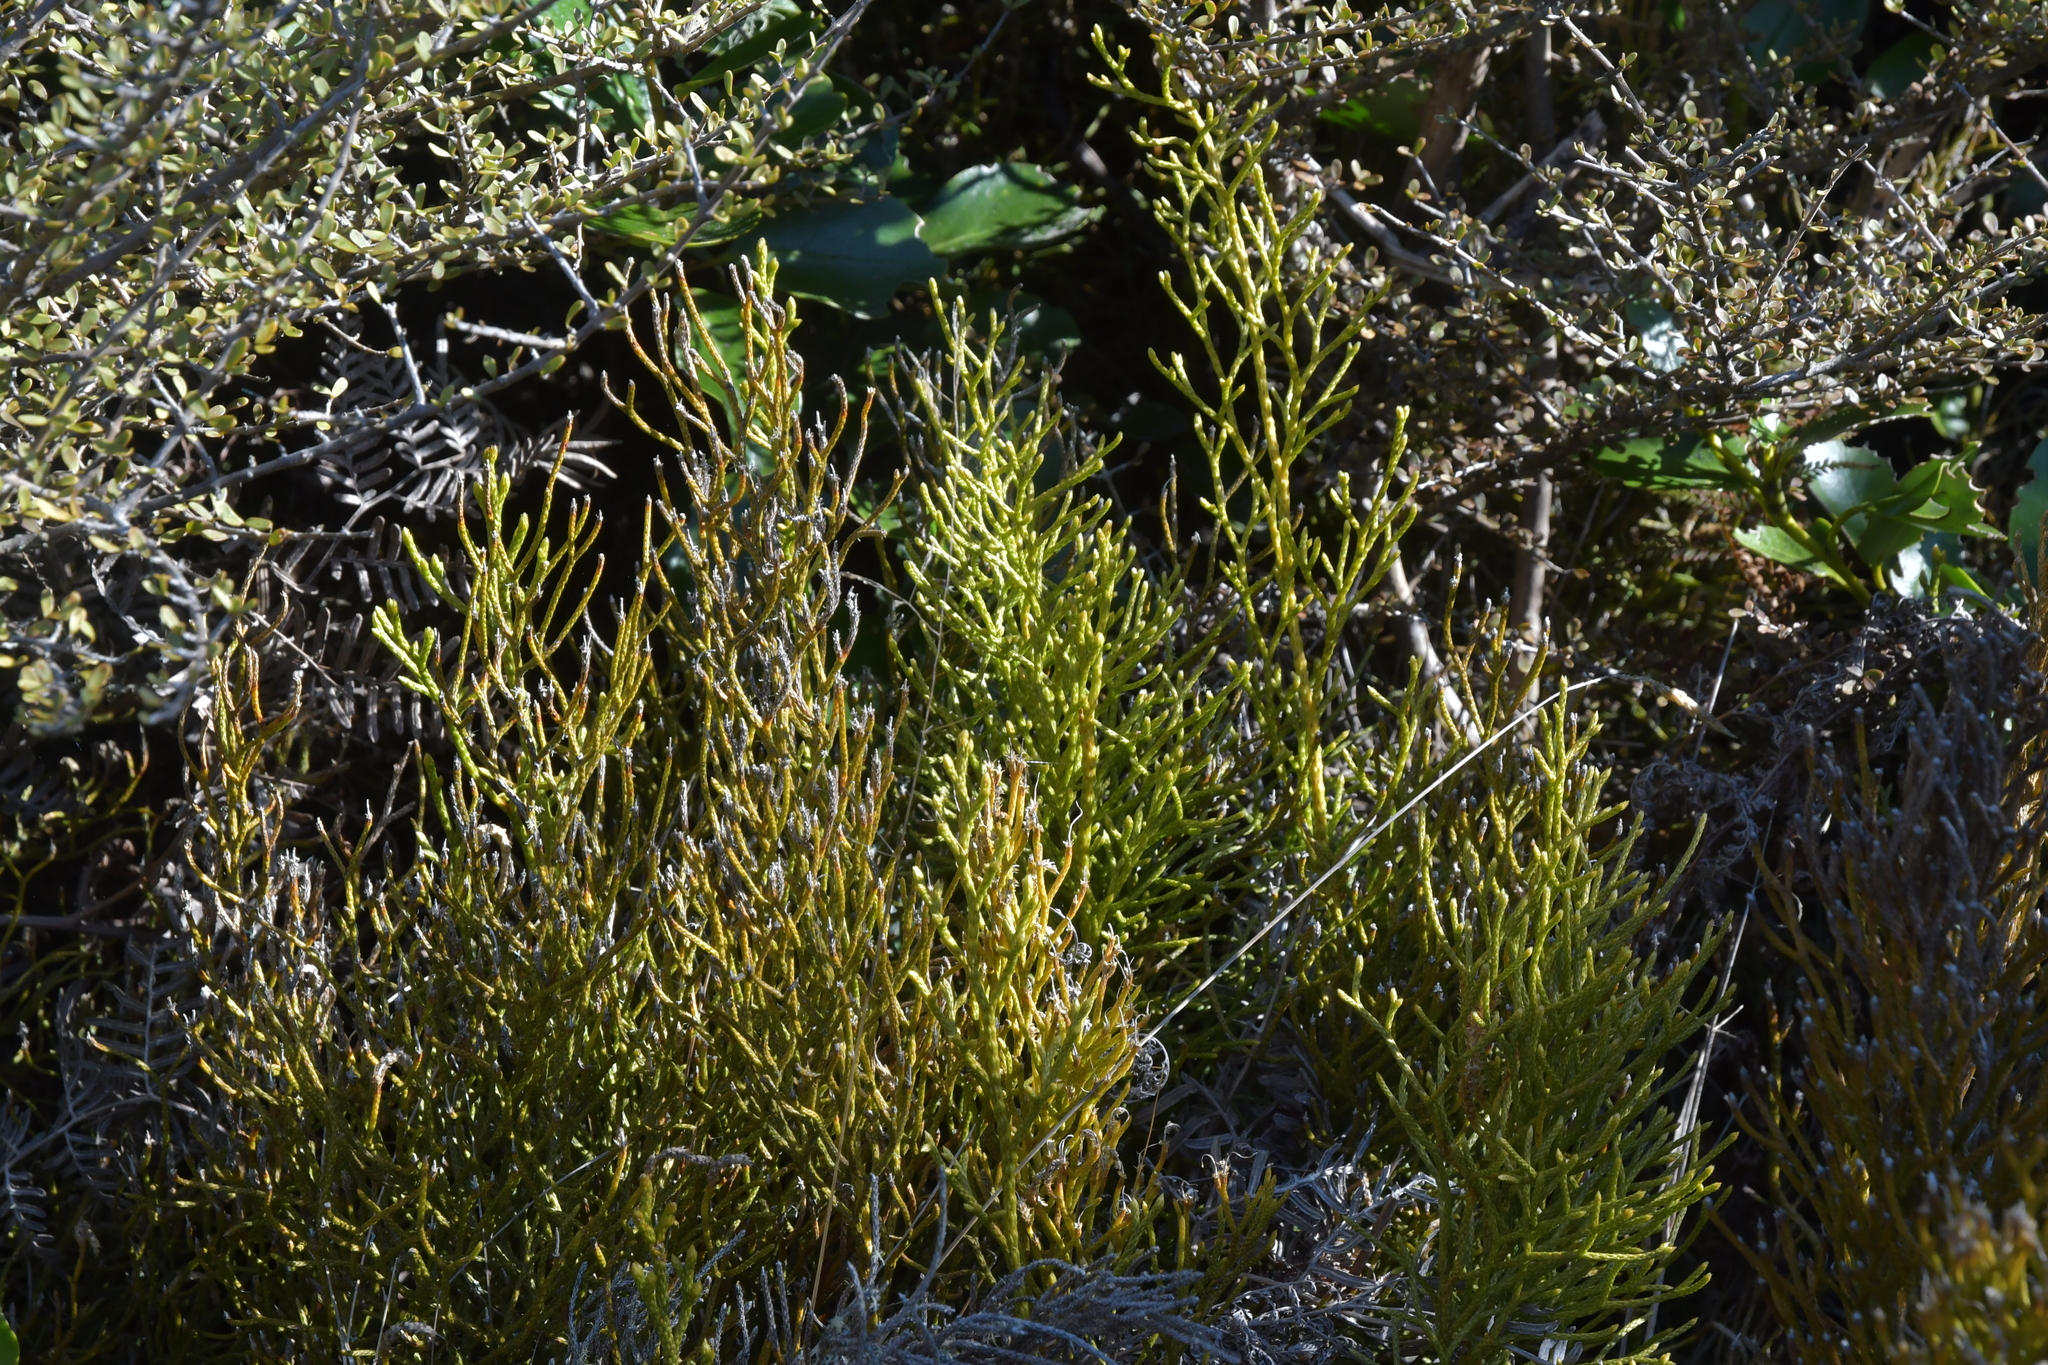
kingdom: Plantae
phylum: Tracheophyta
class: Lycopodiopsida
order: Lycopodiales
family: Lycopodiaceae
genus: Pseudolycopodium
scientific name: Pseudolycopodium densum
